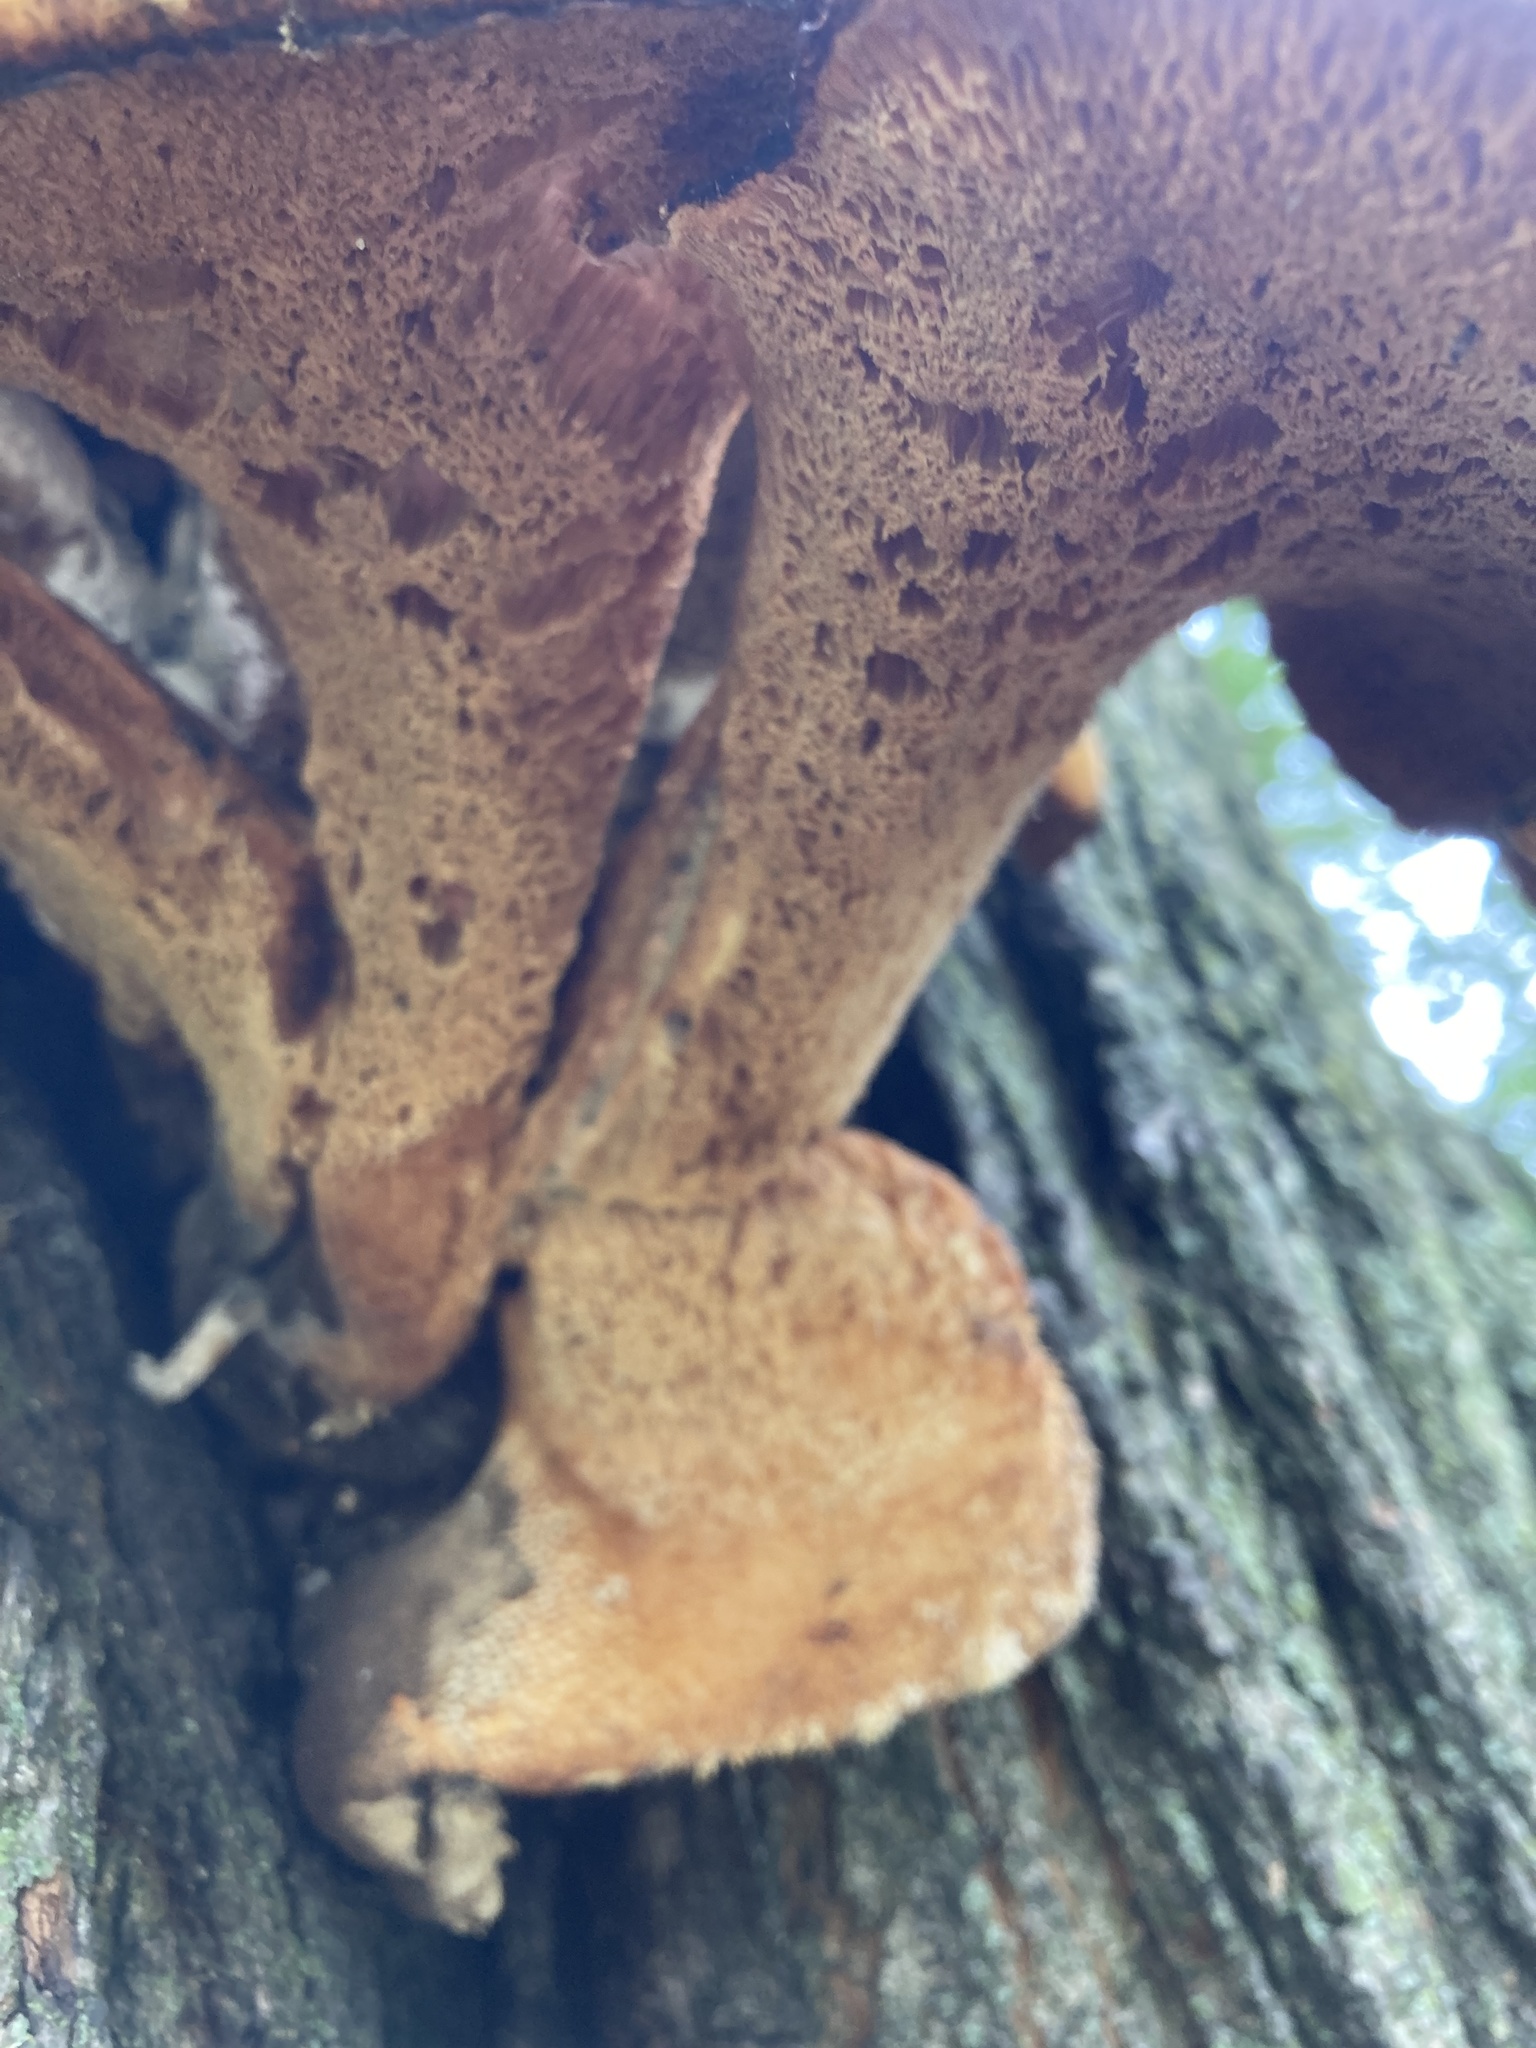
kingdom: Fungi
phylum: Basidiomycota
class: Agaricomycetes
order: Polyporales
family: Polyporaceae
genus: Cerioporus
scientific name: Cerioporus squamosus
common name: Dryad's saddle
